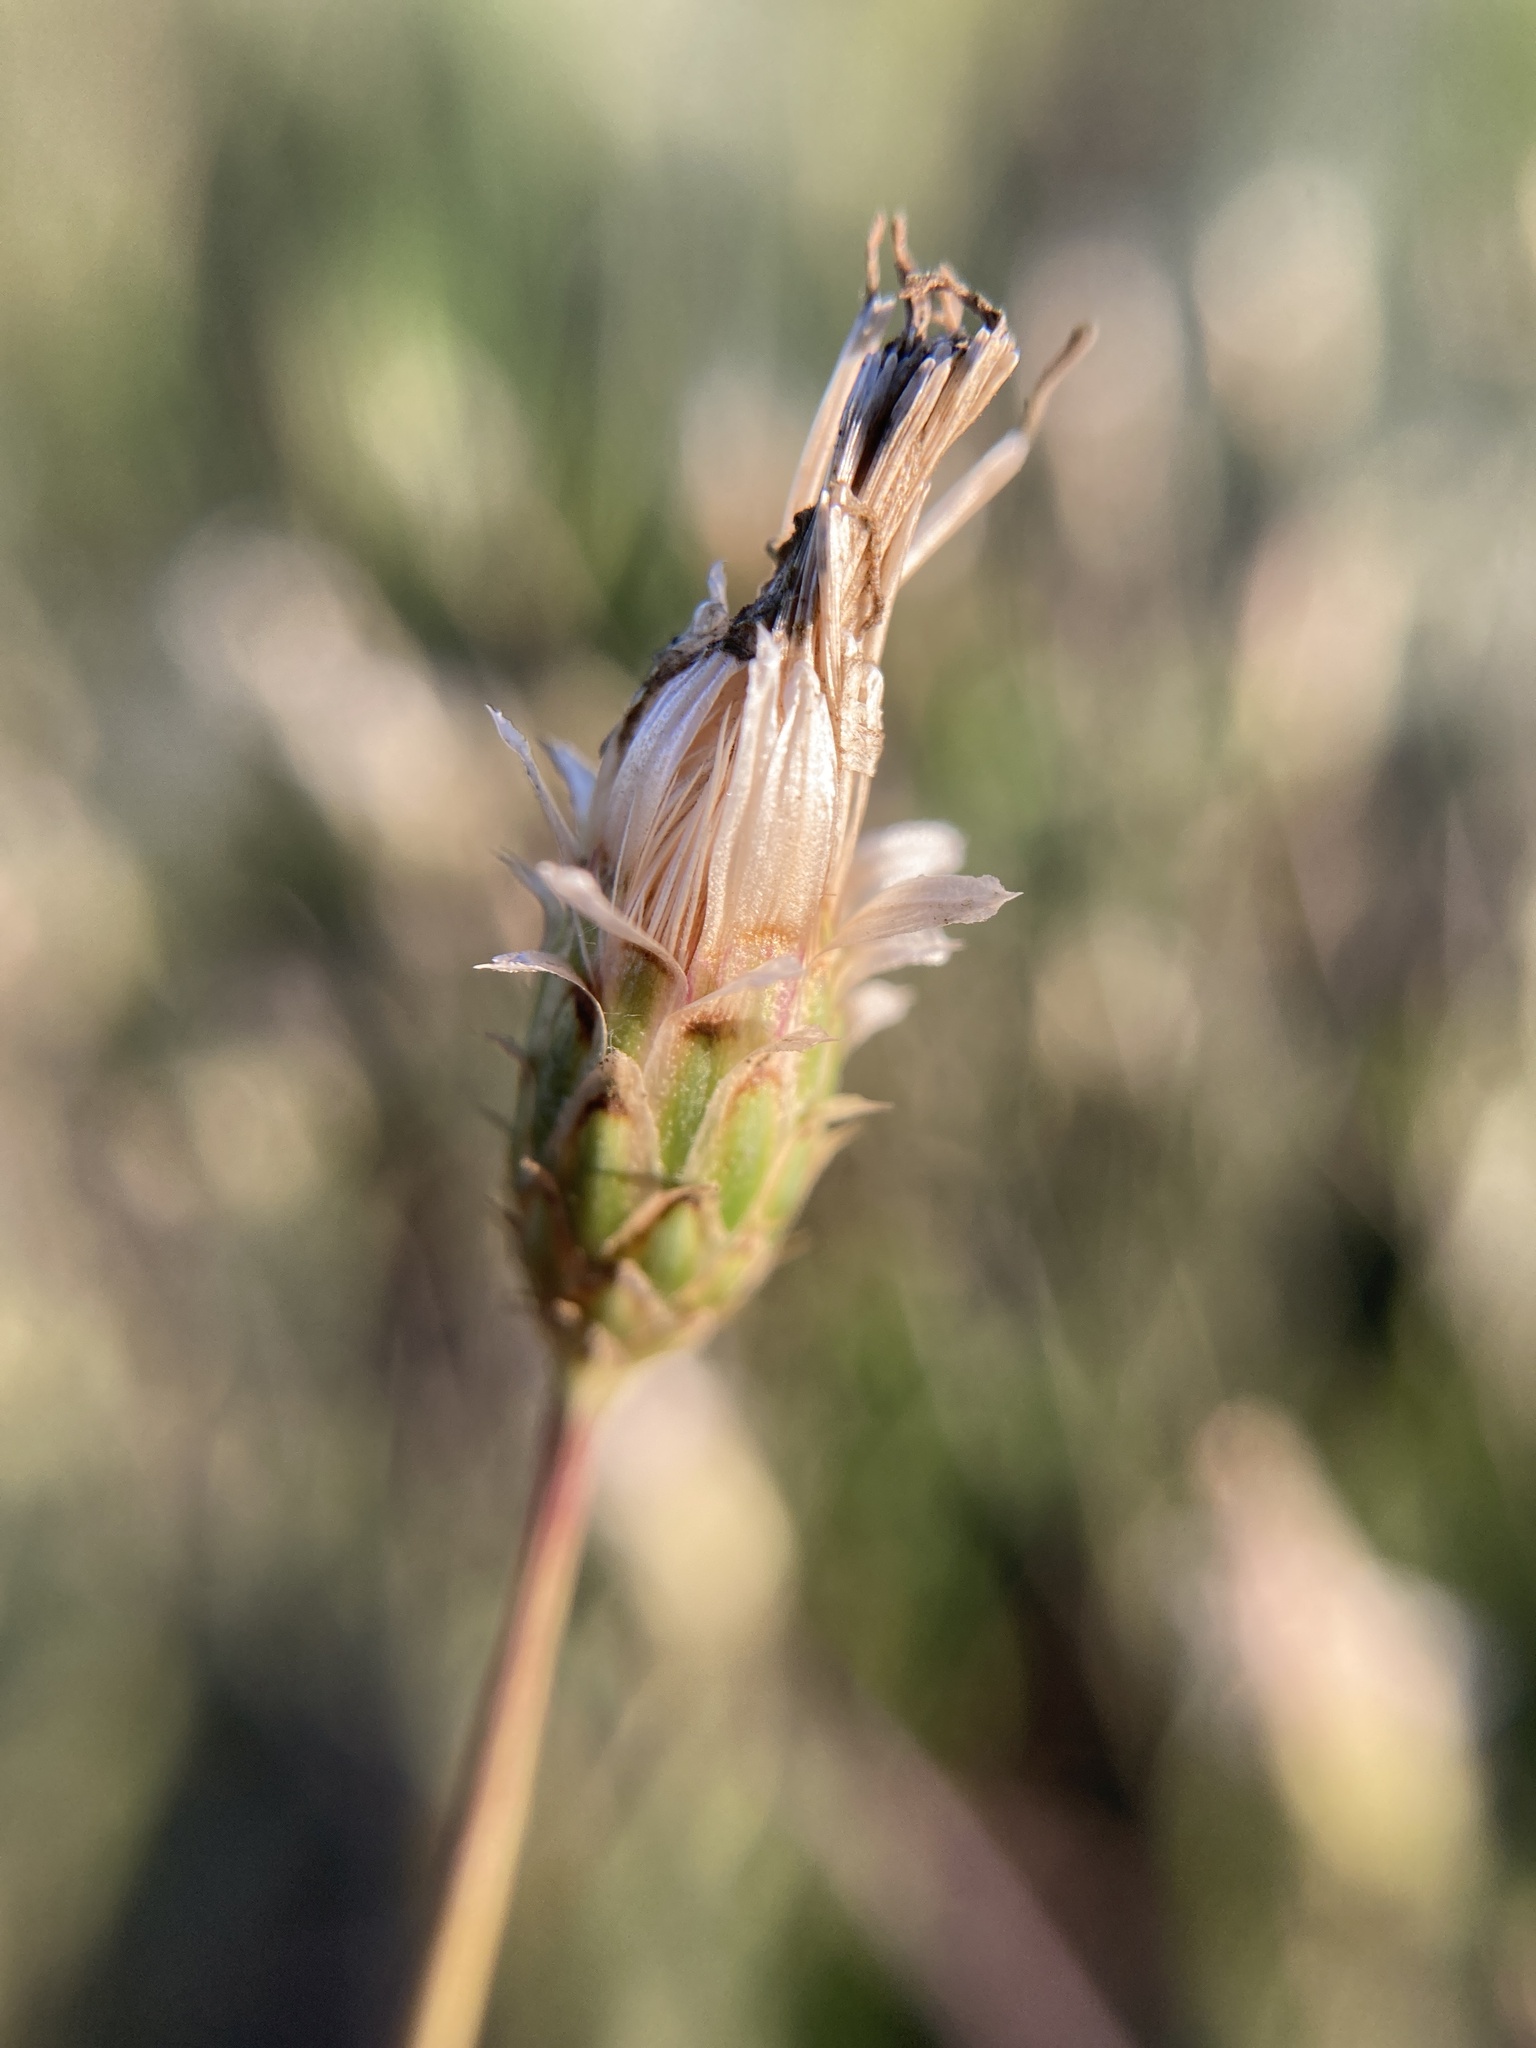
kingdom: Plantae
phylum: Tracheophyta
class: Magnoliopsida
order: Asterales
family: Asteraceae
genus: Klasea
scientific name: Klasea erucifolia
